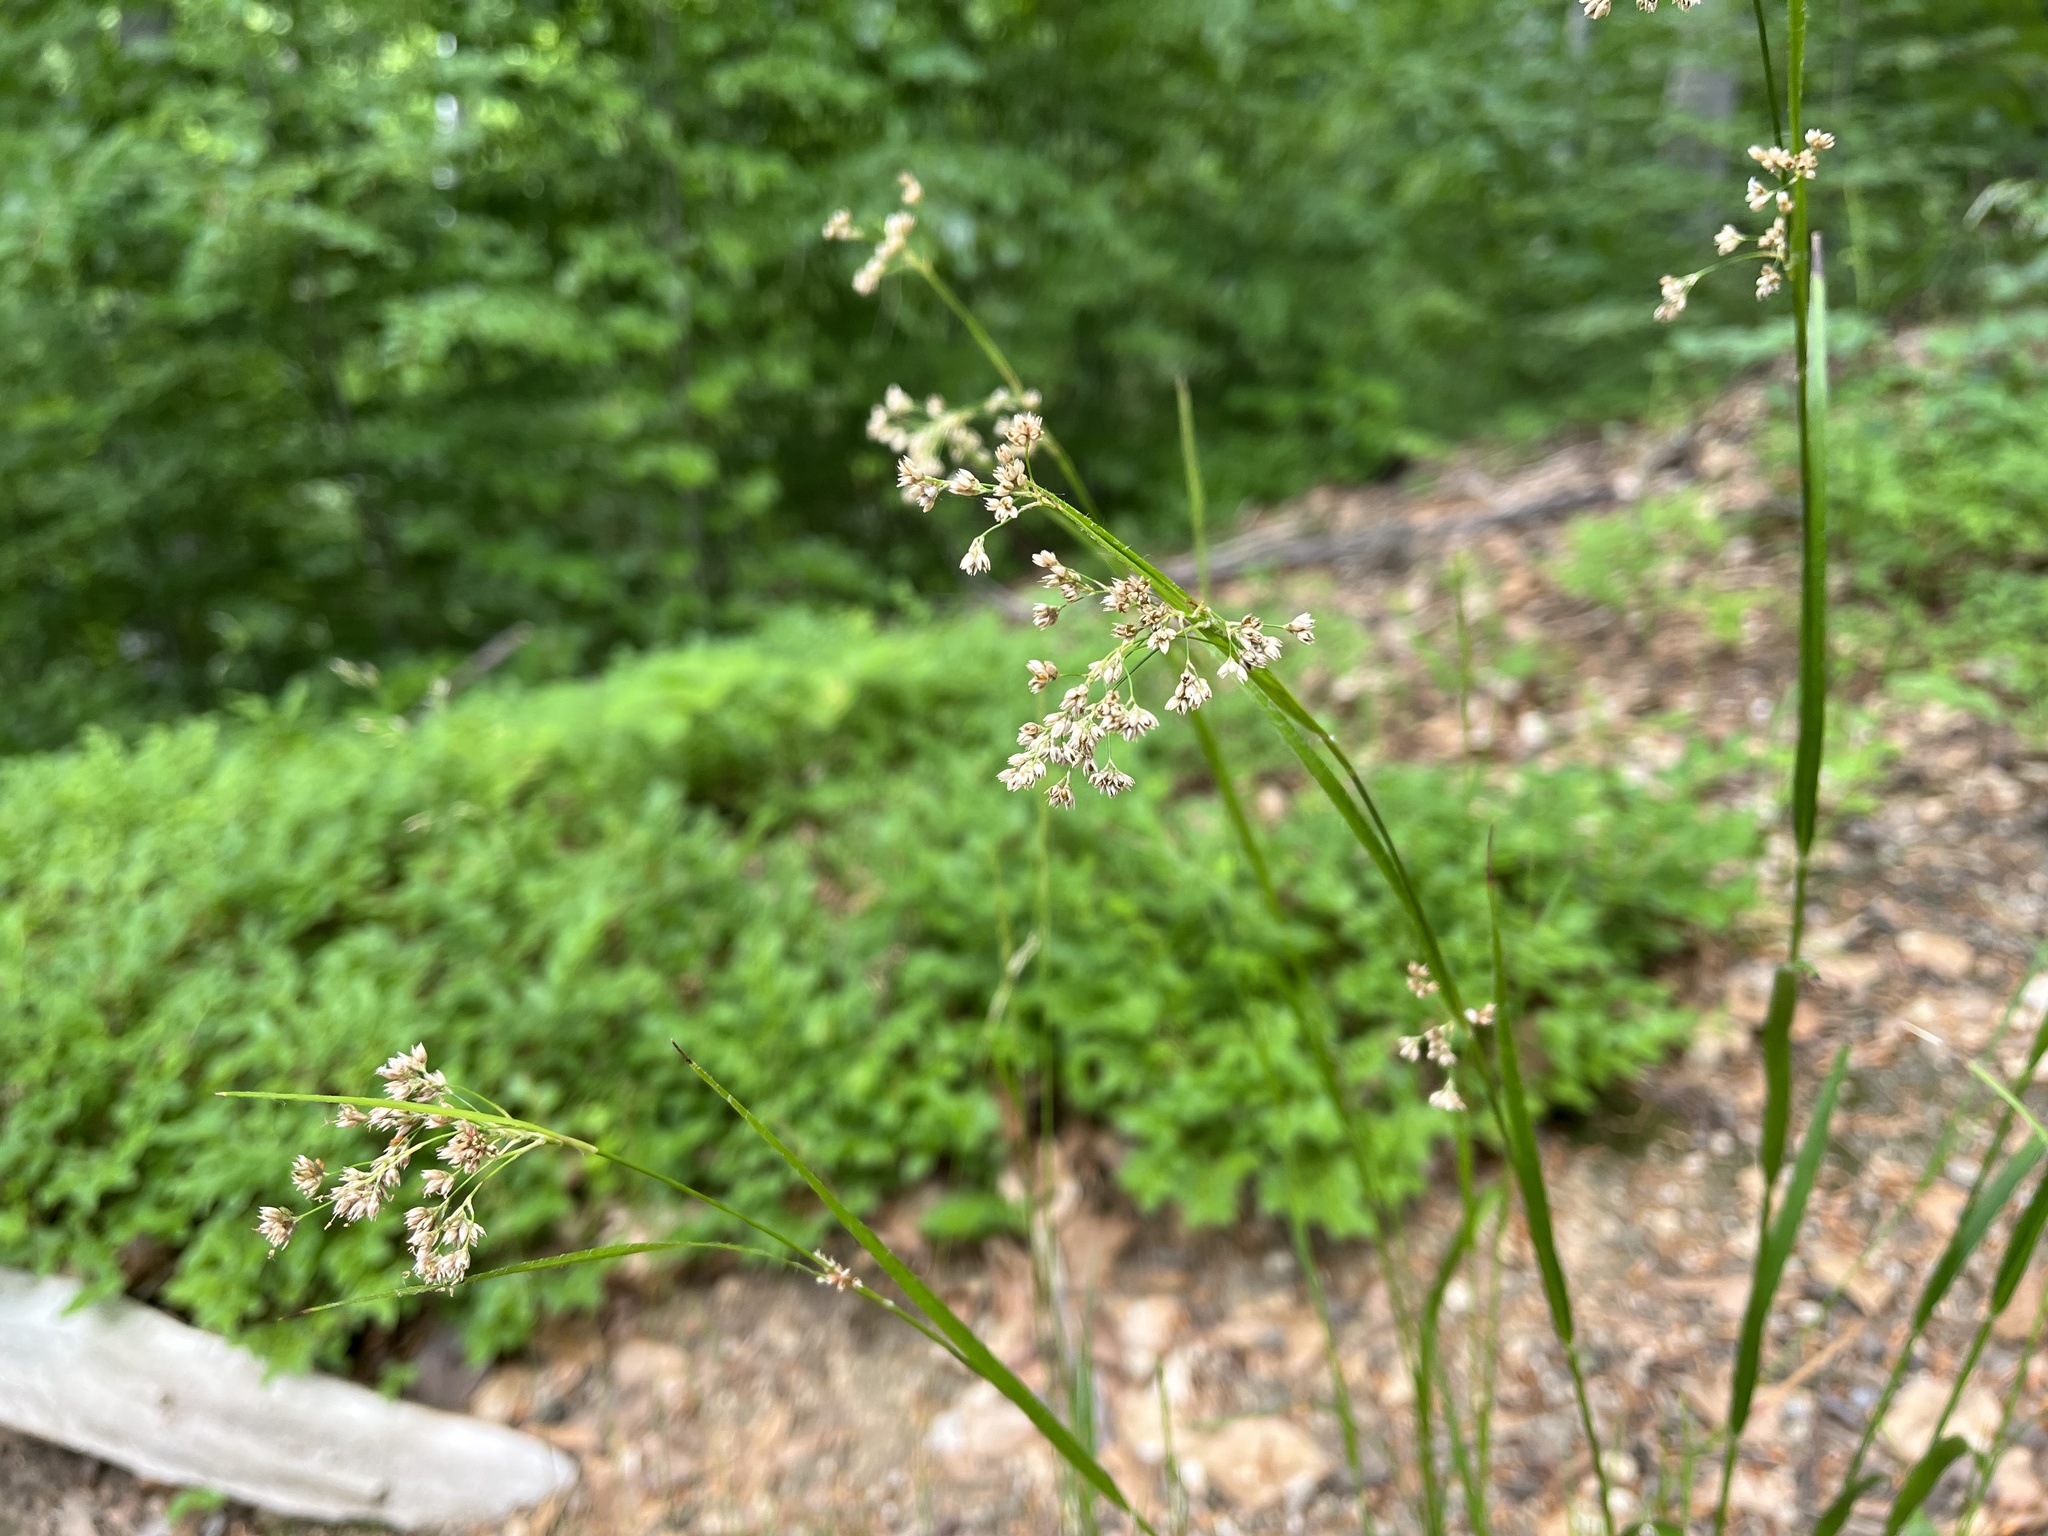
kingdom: Plantae
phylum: Tracheophyta
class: Liliopsida
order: Poales
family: Juncaceae
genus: Luzula
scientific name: Luzula luzuloides
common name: White wood-rush
